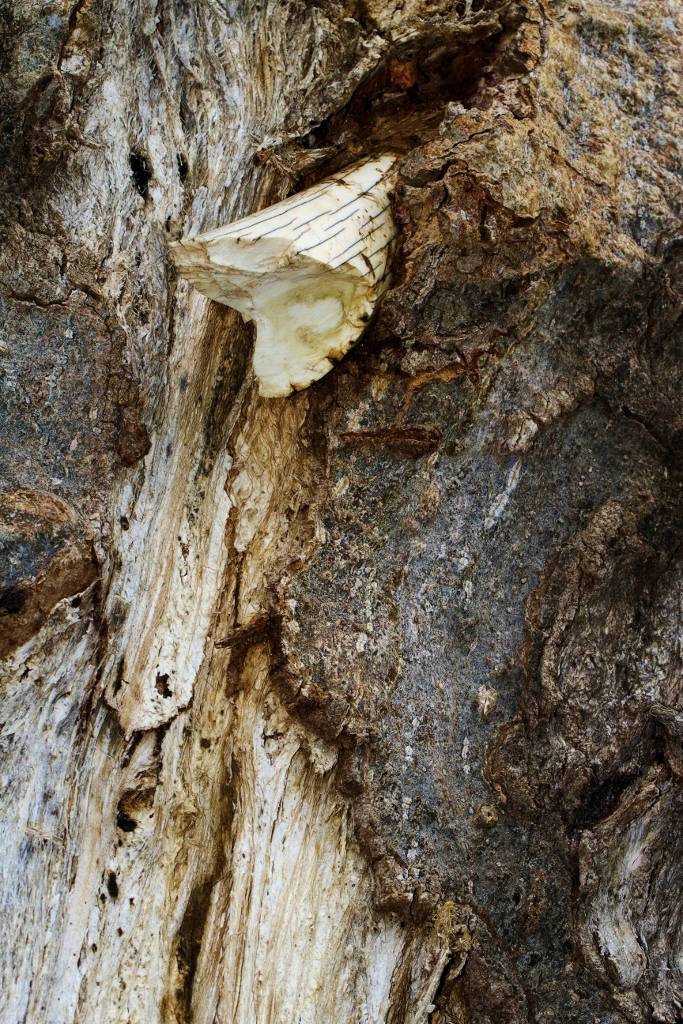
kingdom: Animalia
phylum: Chordata
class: Mammalia
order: Proboscidea
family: Elephantidae
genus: Loxodonta
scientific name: Loxodonta africana
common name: African elephant
